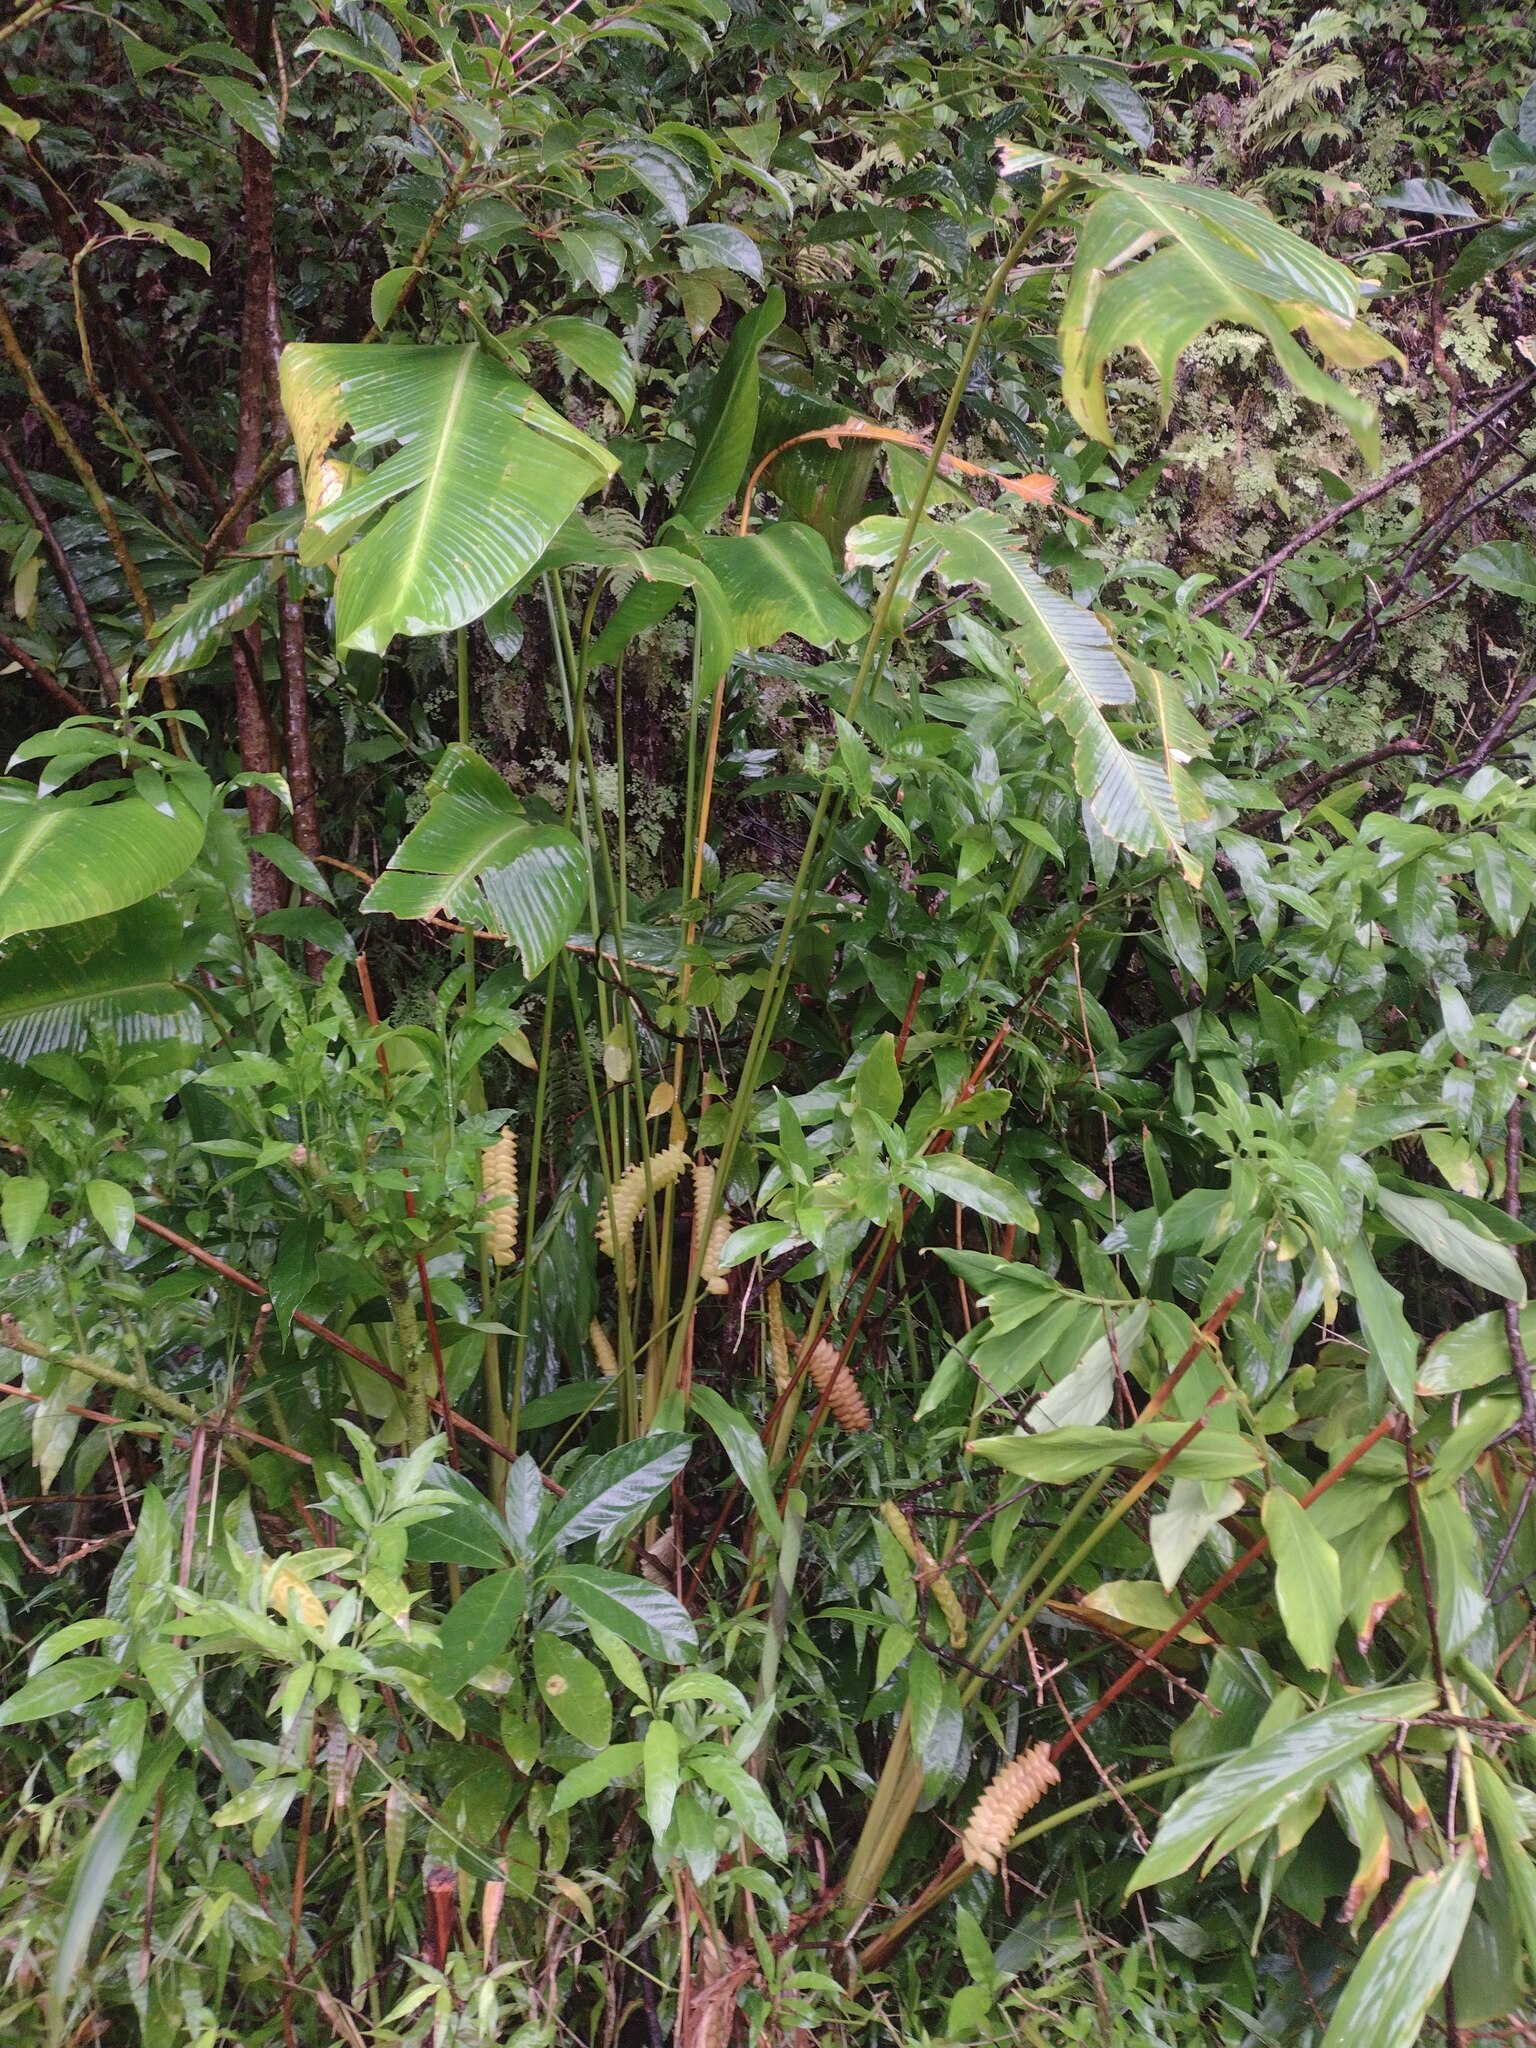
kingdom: Plantae
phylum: Tracheophyta
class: Liliopsida
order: Zingiberales
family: Marantaceae
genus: Calathea
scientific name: Calathea crotalifera
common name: Rattlesnake plant
